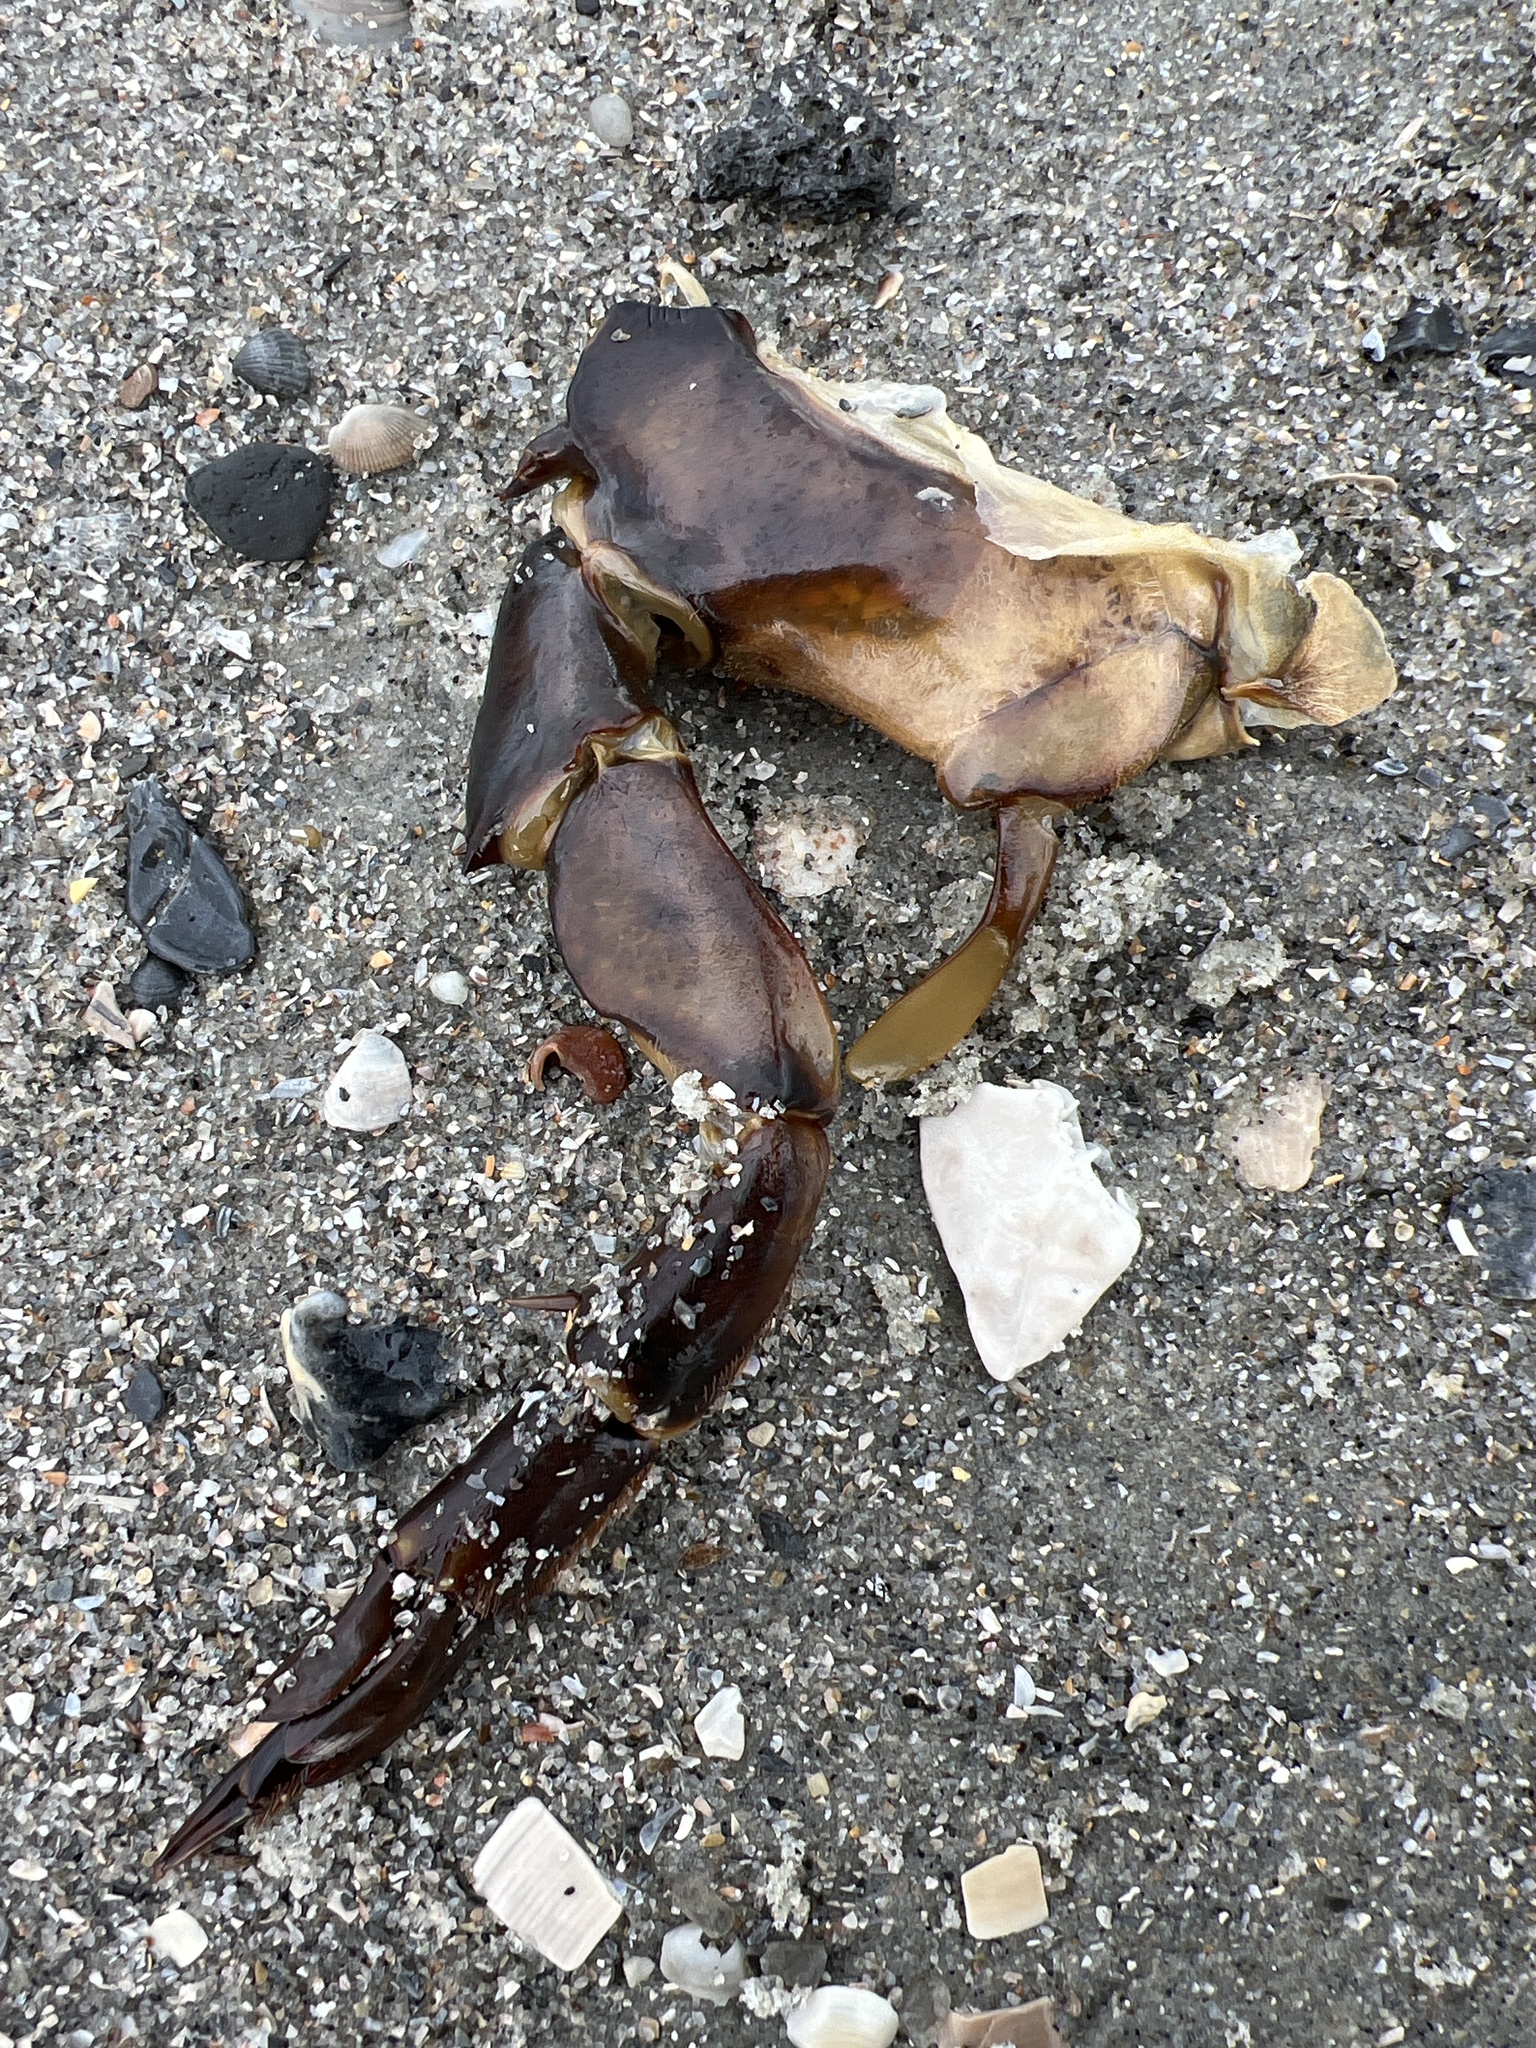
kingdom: Animalia
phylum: Arthropoda
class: Merostomata
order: Xiphosurida
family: Limulidae
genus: Limulus
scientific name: Limulus polyphemus
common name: Horseshoe crab
